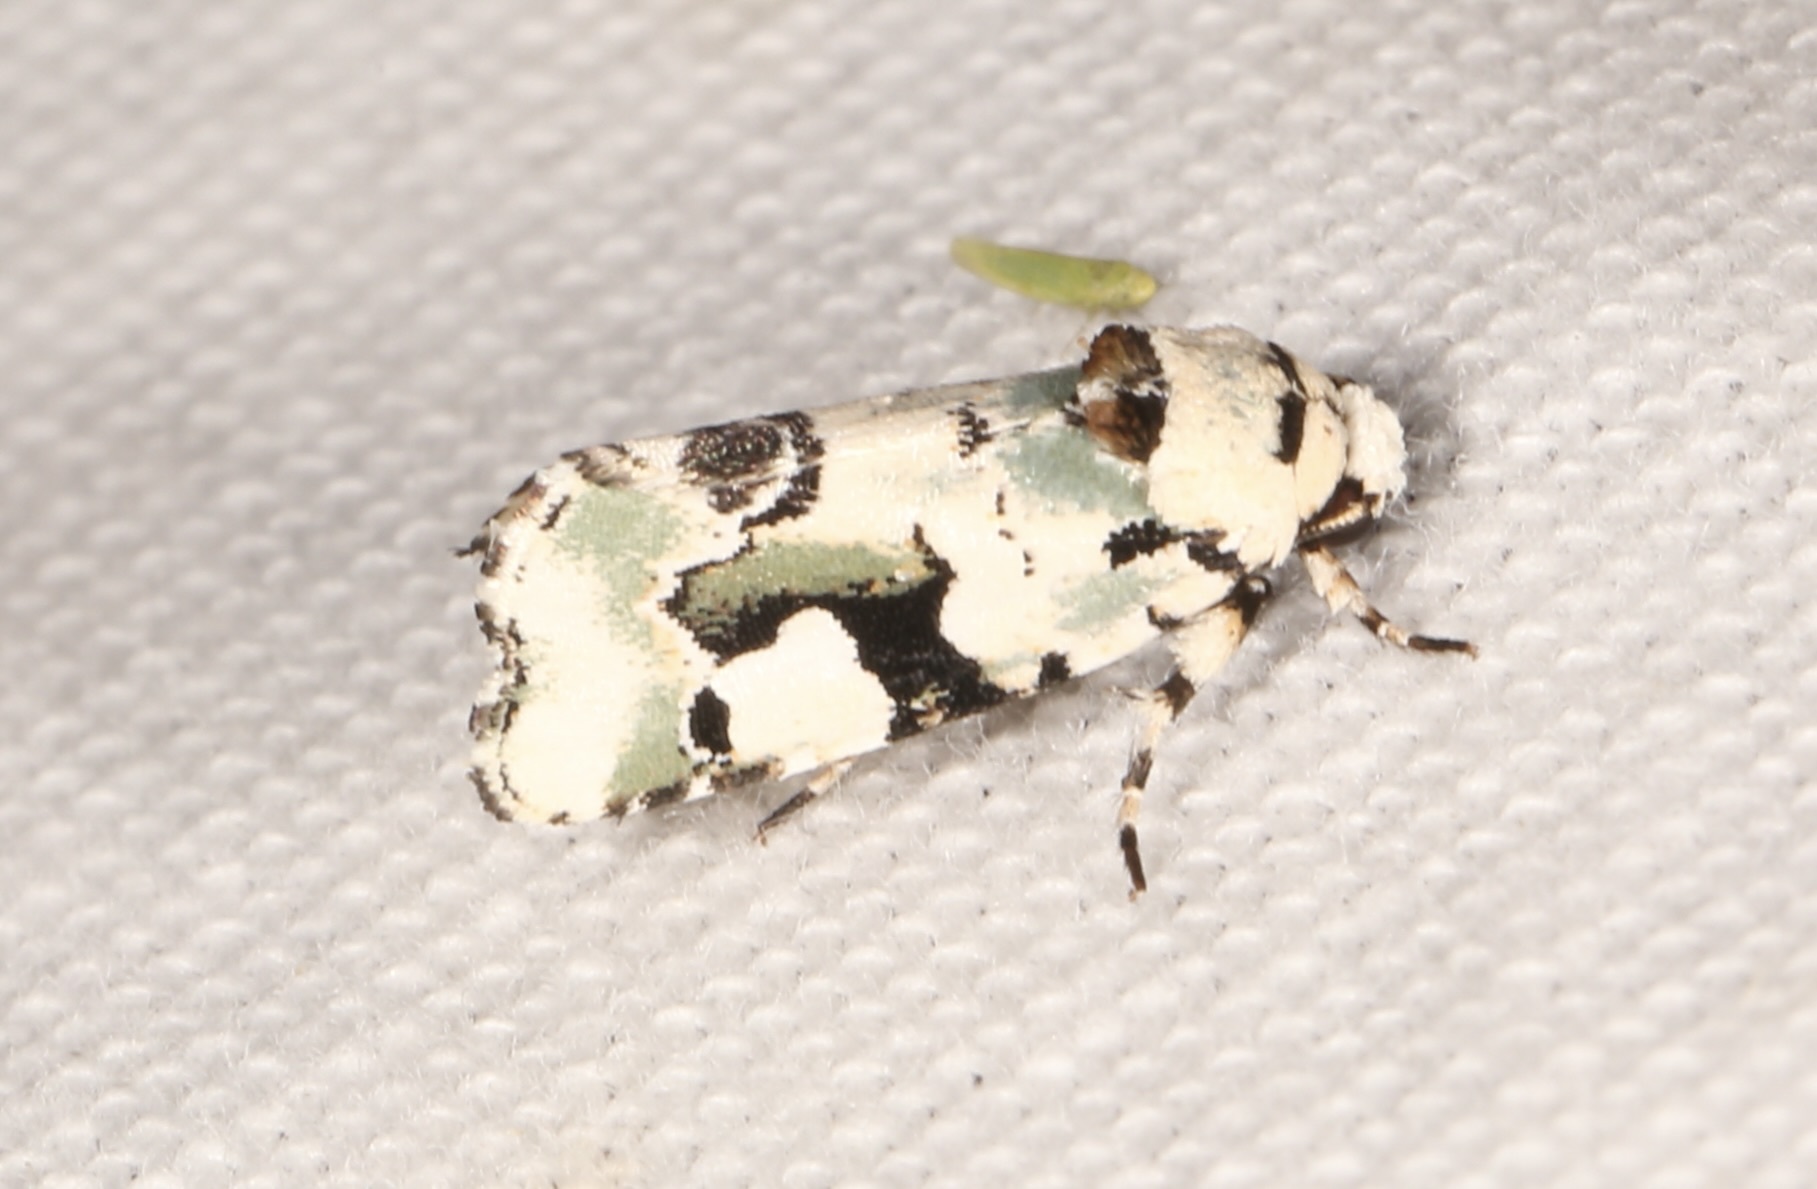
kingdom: Animalia
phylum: Arthropoda
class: Insecta
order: Lepidoptera
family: Noctuidae
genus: Emarginea
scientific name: Emarginea percara
